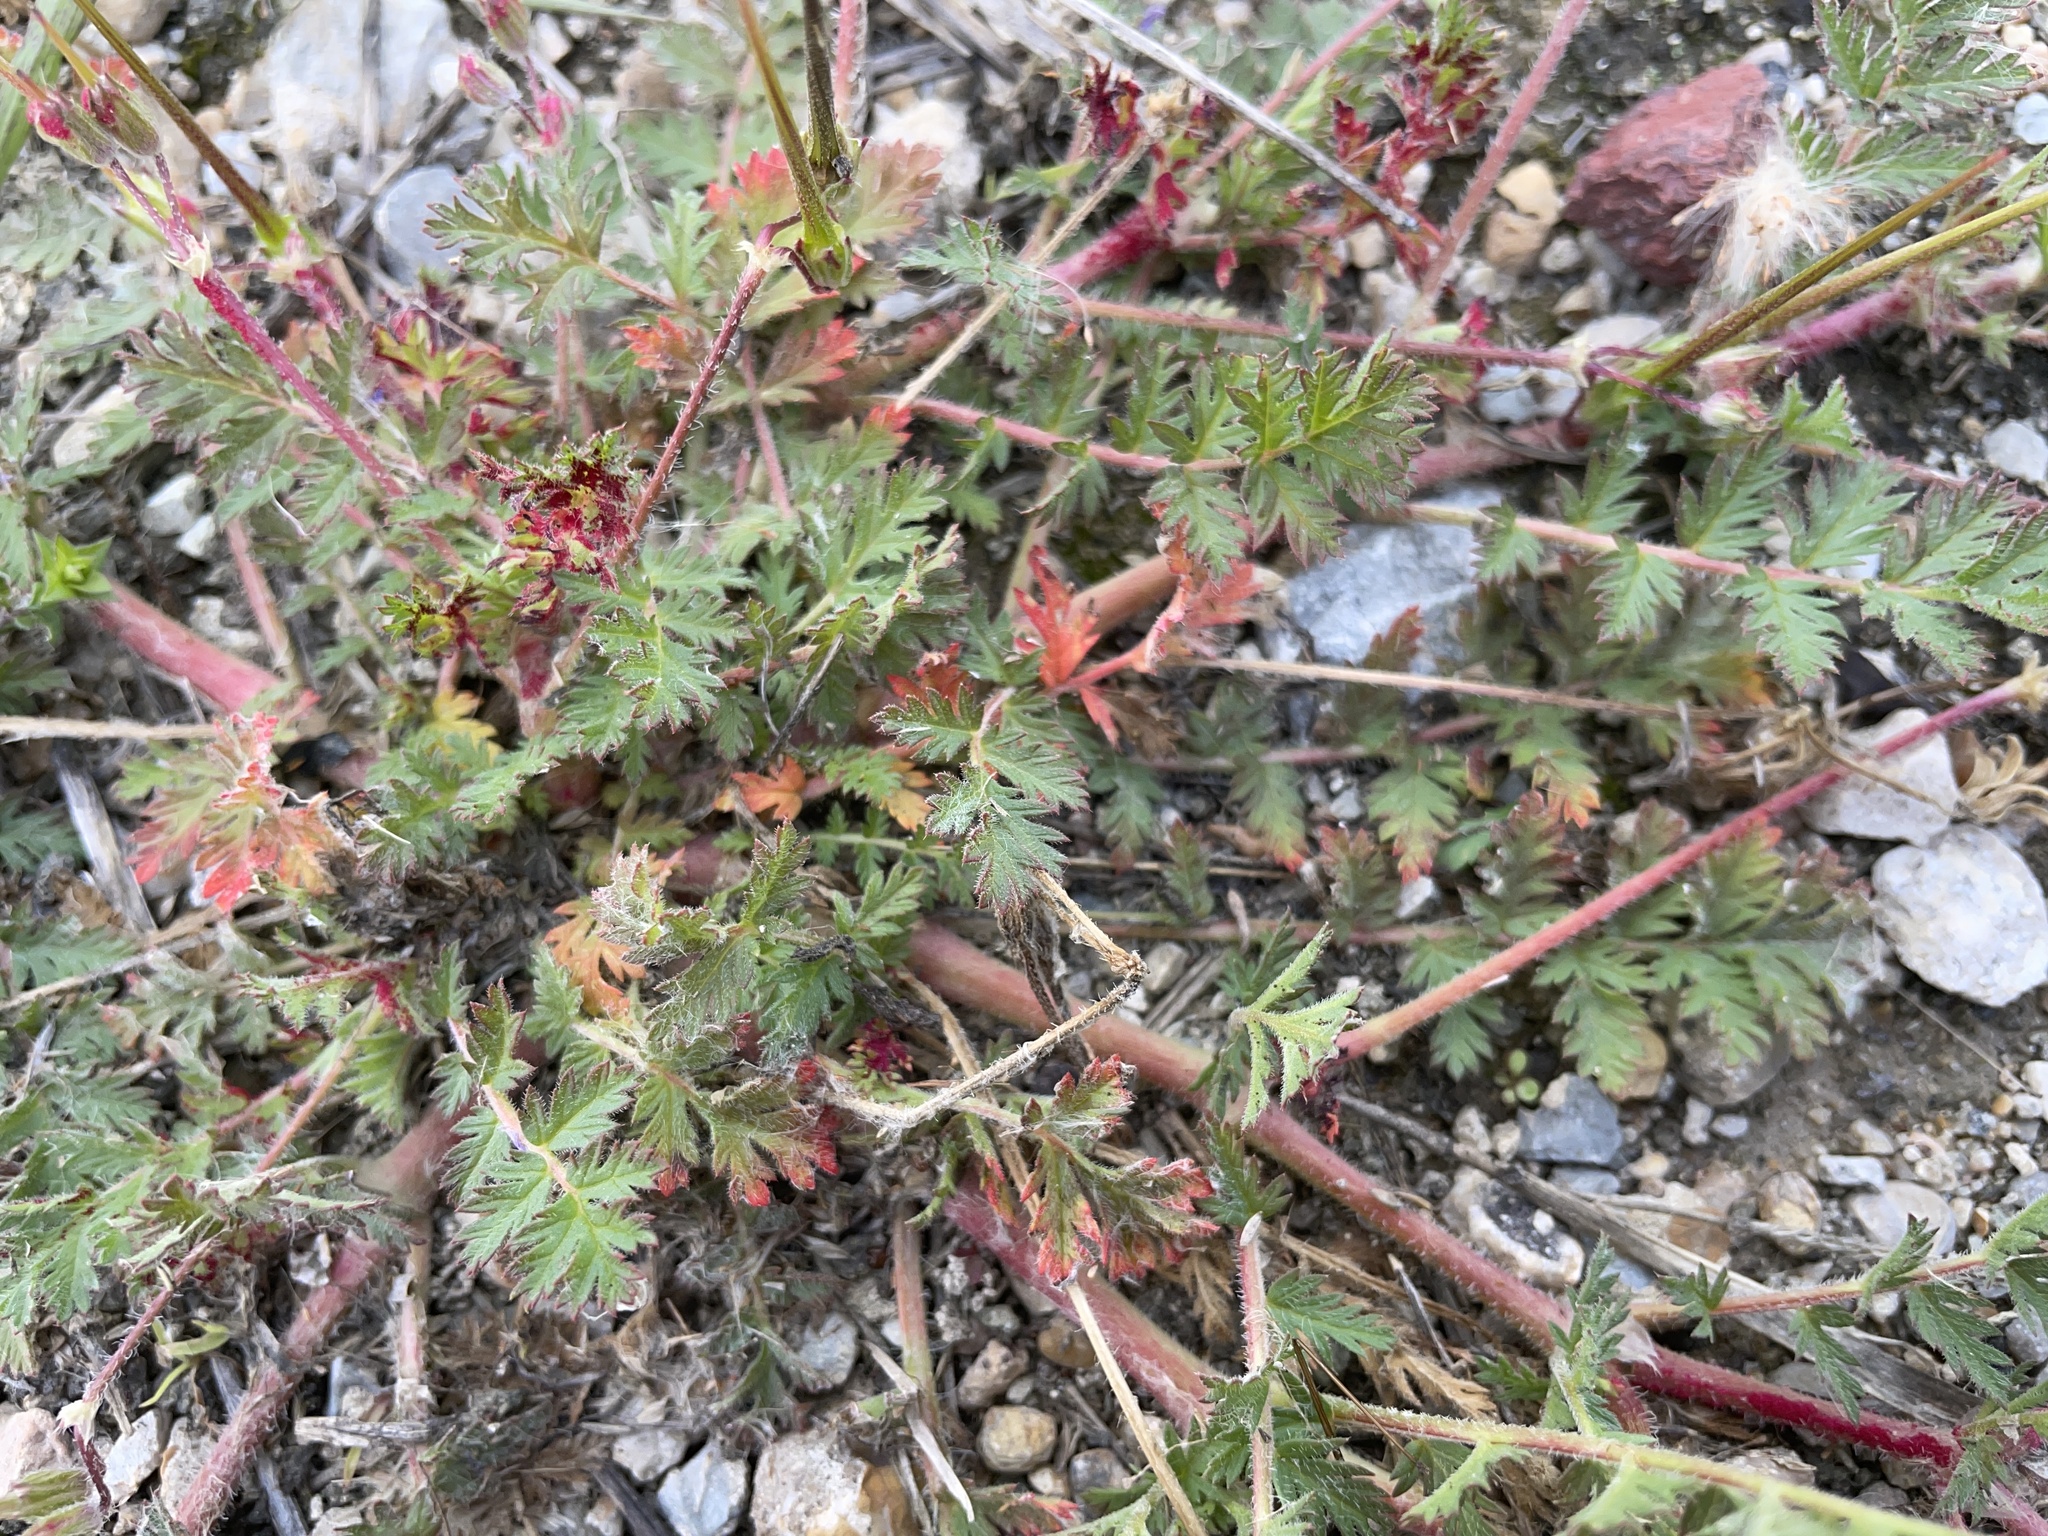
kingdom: Plantae
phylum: Tracheophyta
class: Magnoliopsida
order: Geraniales
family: Geraniaceae
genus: Erodium
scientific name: Erodium cicutarium
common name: Common stork's-bill
